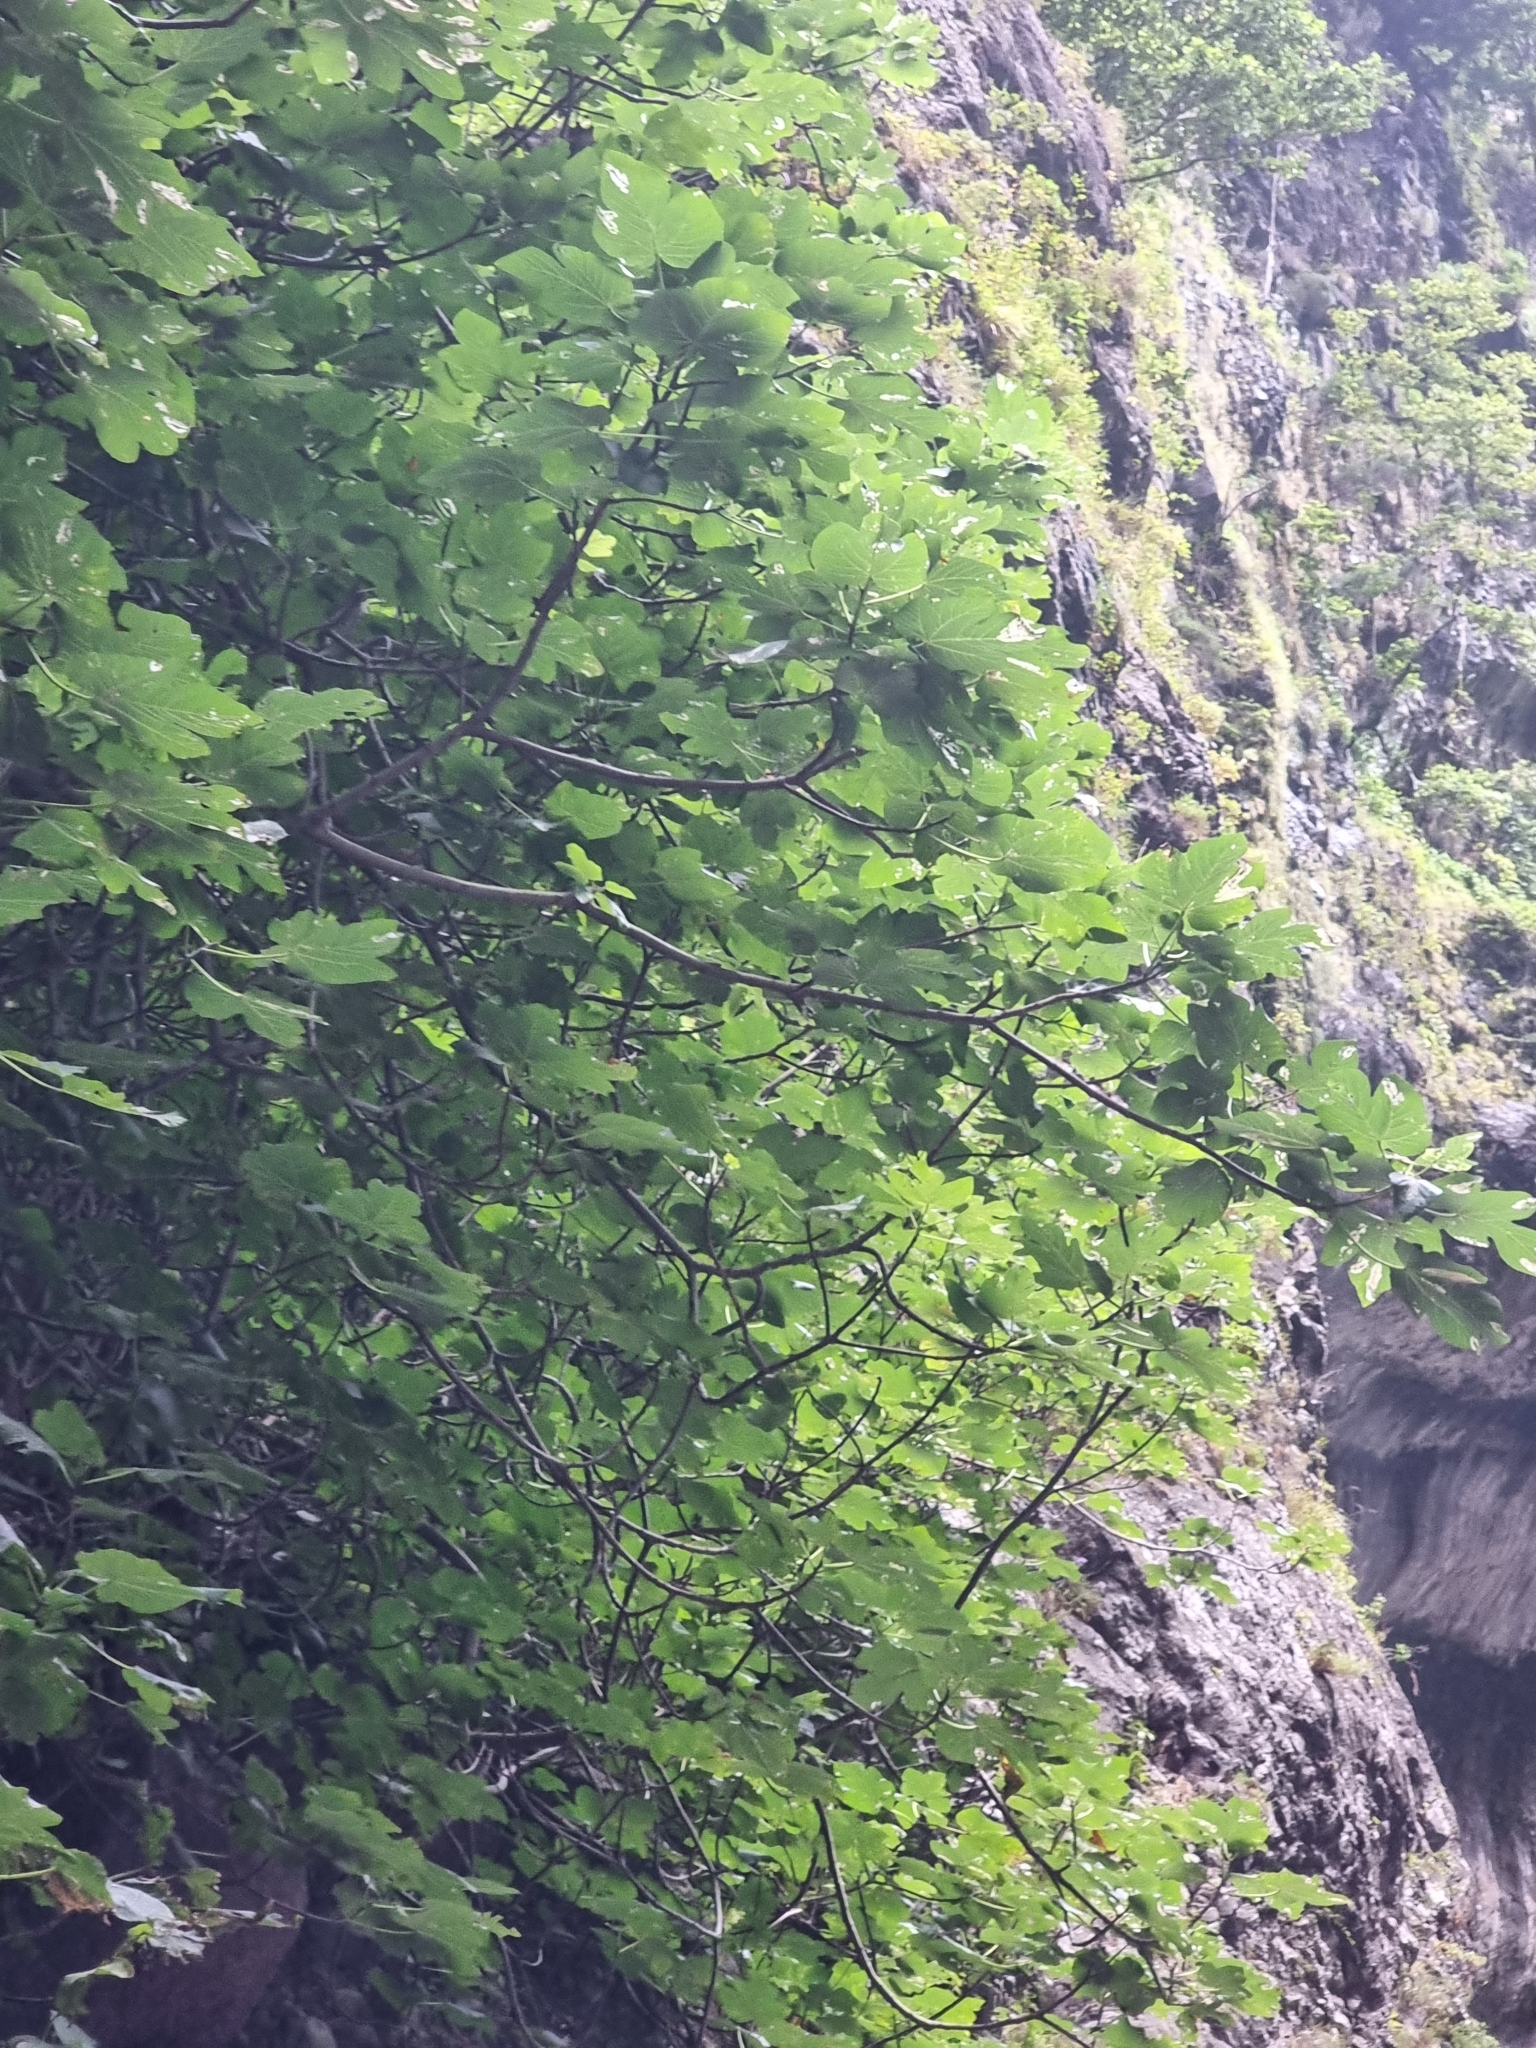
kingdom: Plantae
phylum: Tracheophyta
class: Magnoliopsida
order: Rosales
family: Moraceae
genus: Ficus
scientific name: Ficus carica
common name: Fig
